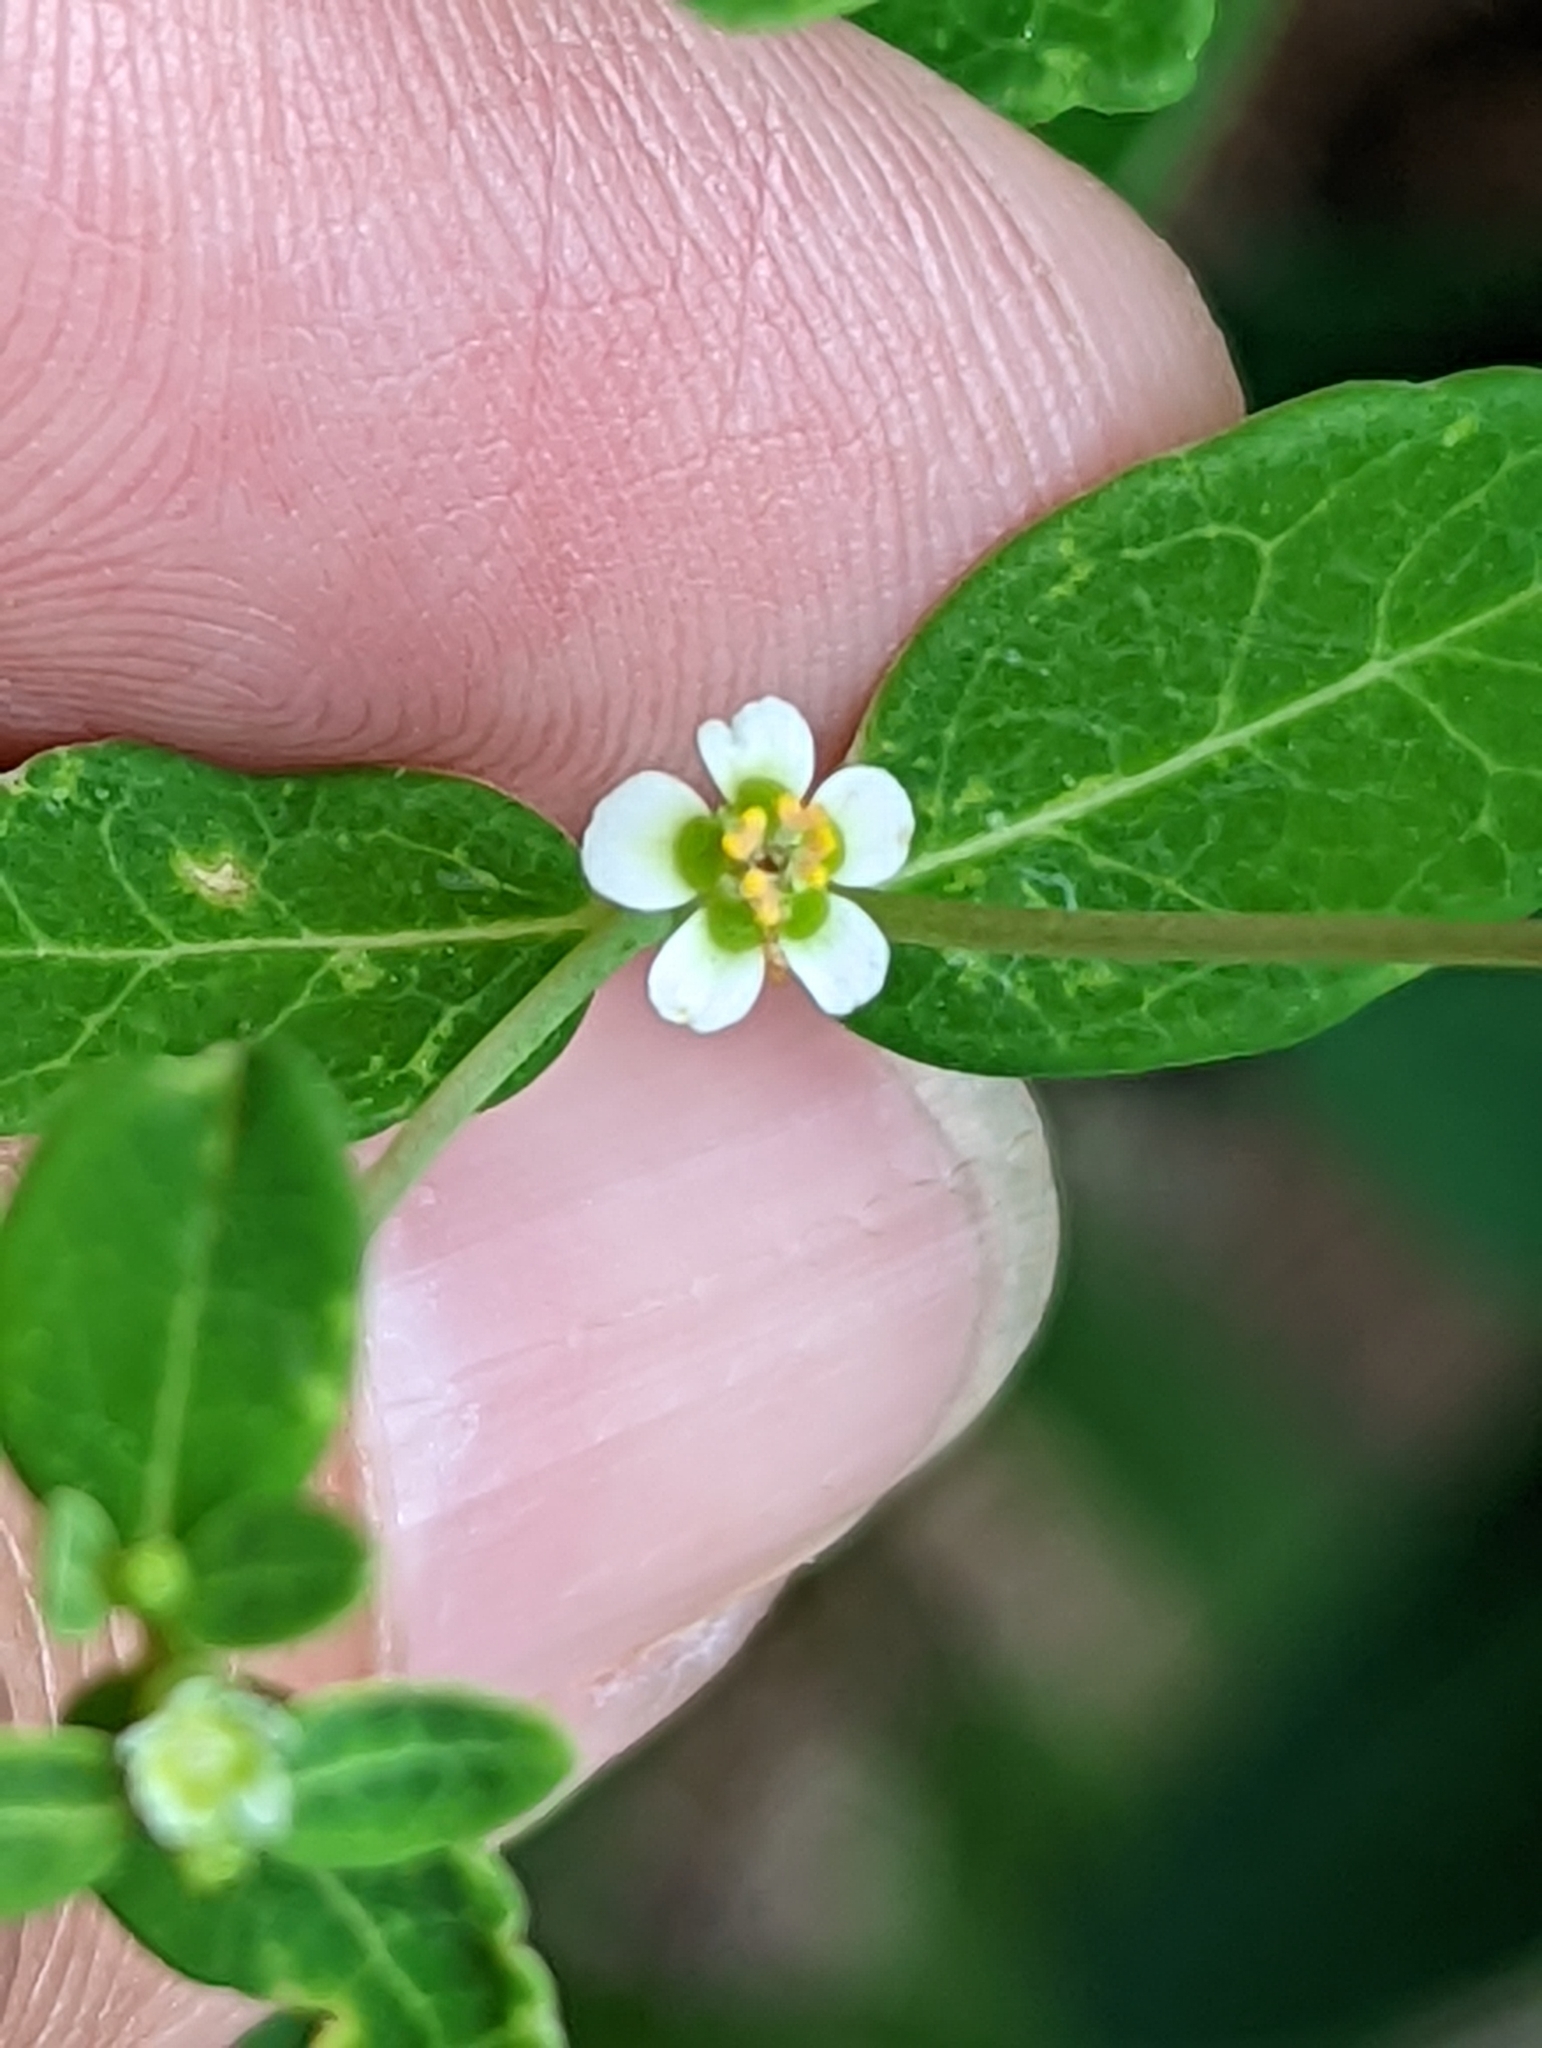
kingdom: Plantae
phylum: Tracheophyta
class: Magnoliopsida
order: Malpighiales
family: Euphorbiaceae
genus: Euphorbia
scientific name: Euphorbia corollata
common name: Flowering spurge
